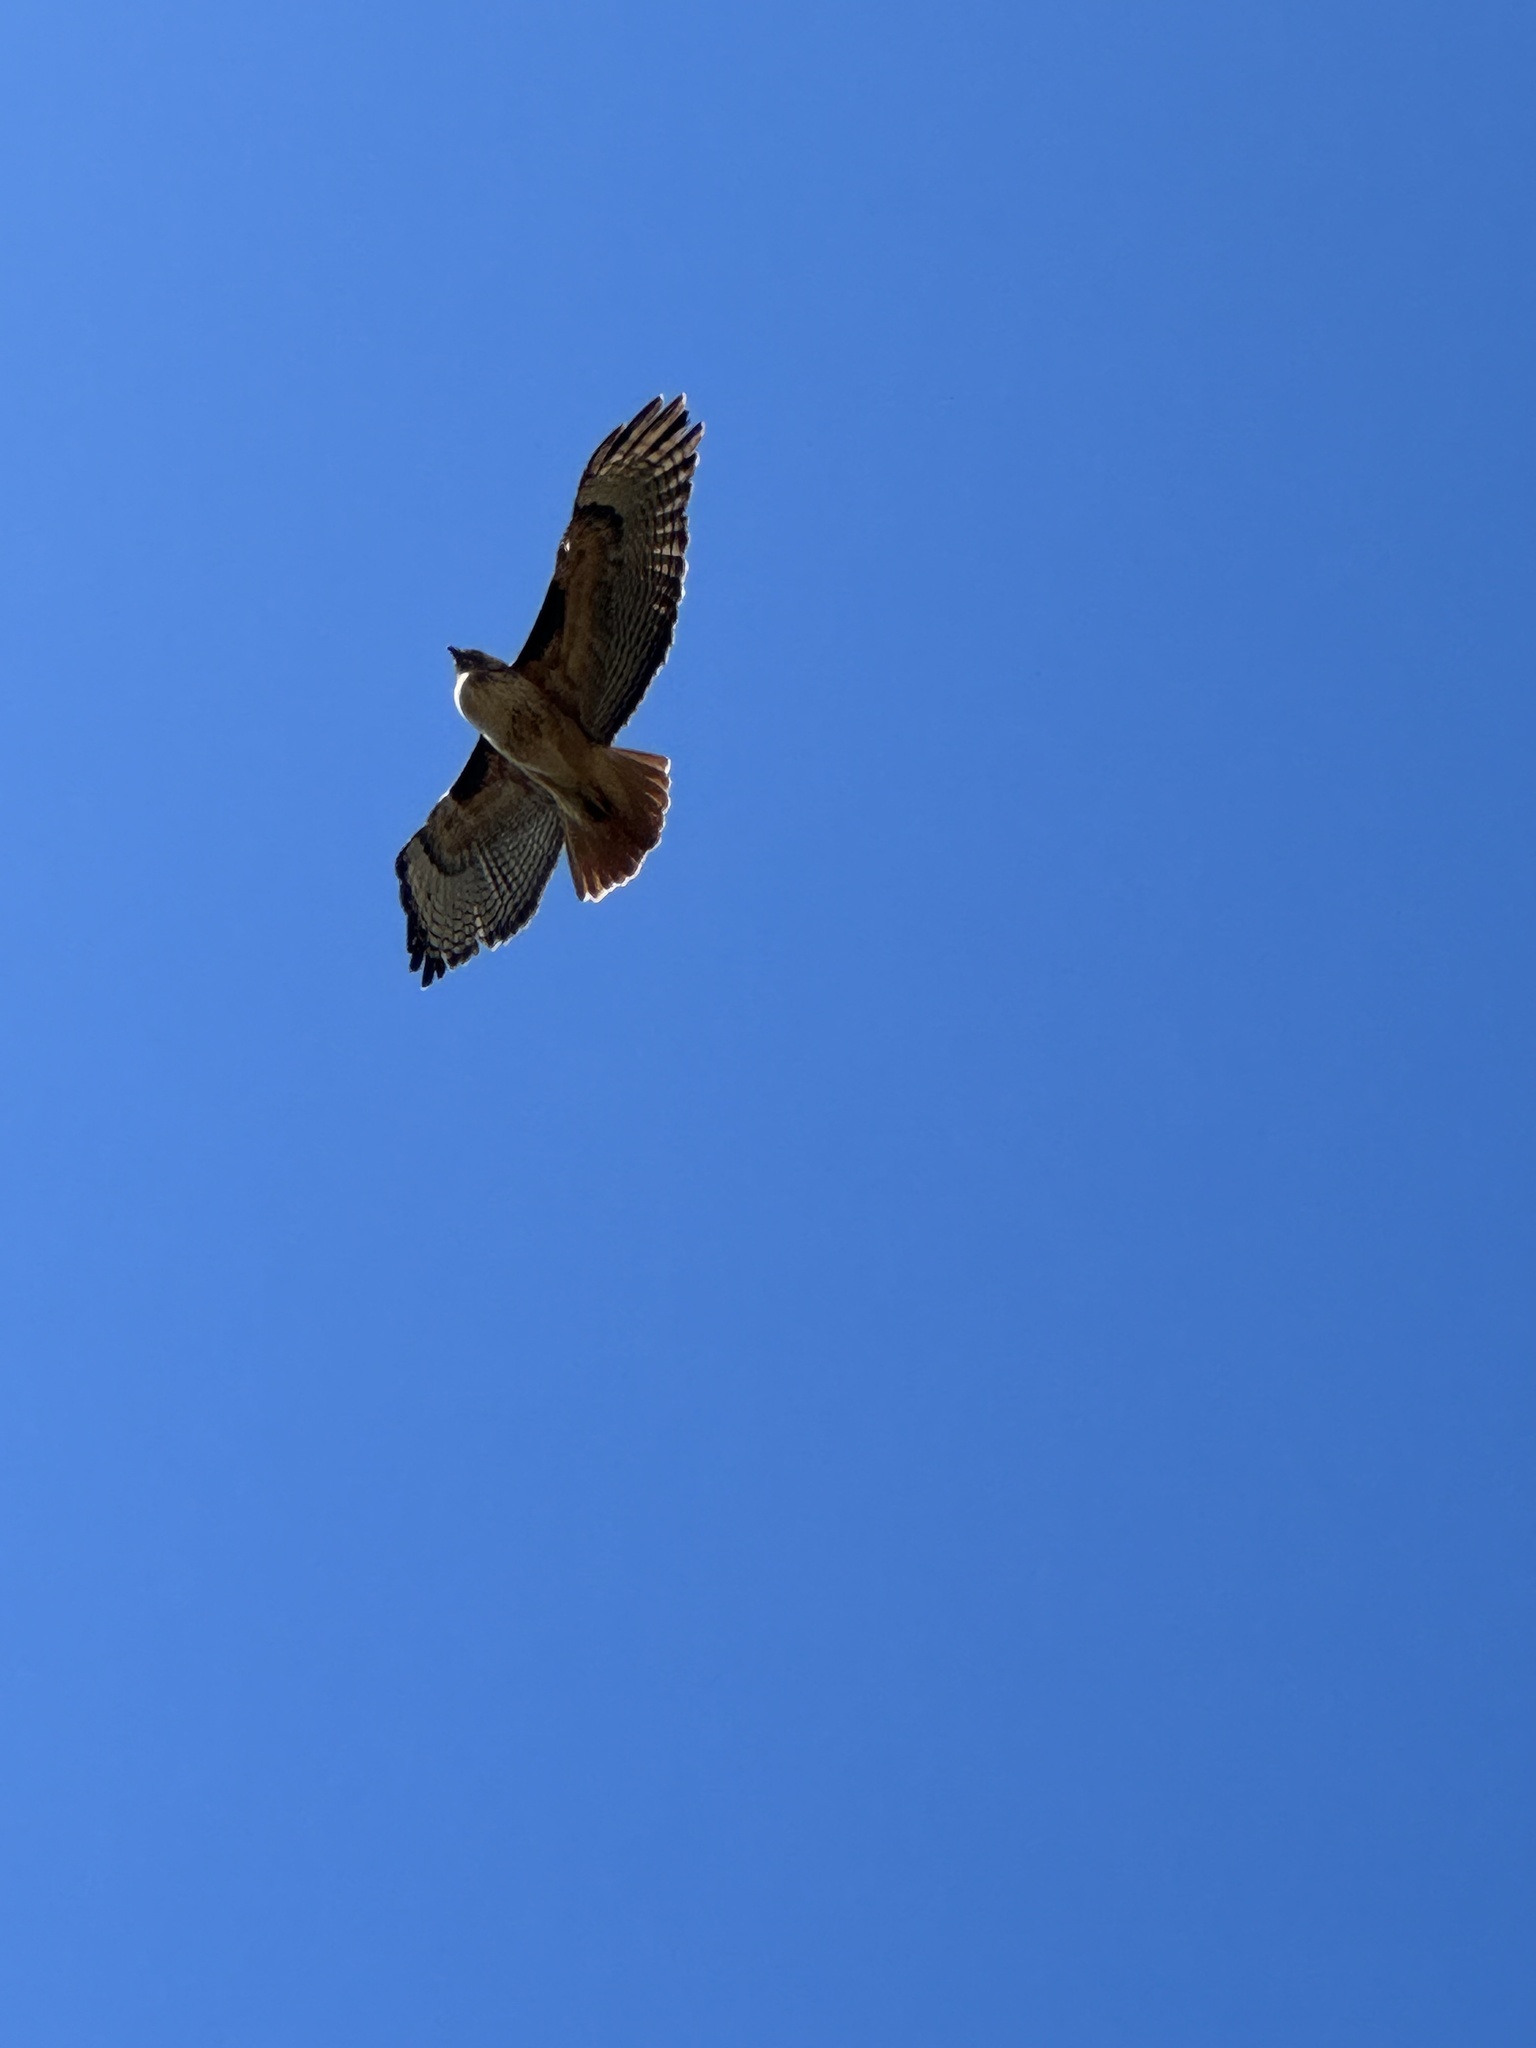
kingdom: Animalia
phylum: Chordata
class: Aves
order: Accipitriformes
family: Accipitridae
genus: Buteo
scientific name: Buteo jamaicensis
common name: Red-tailed hawk
